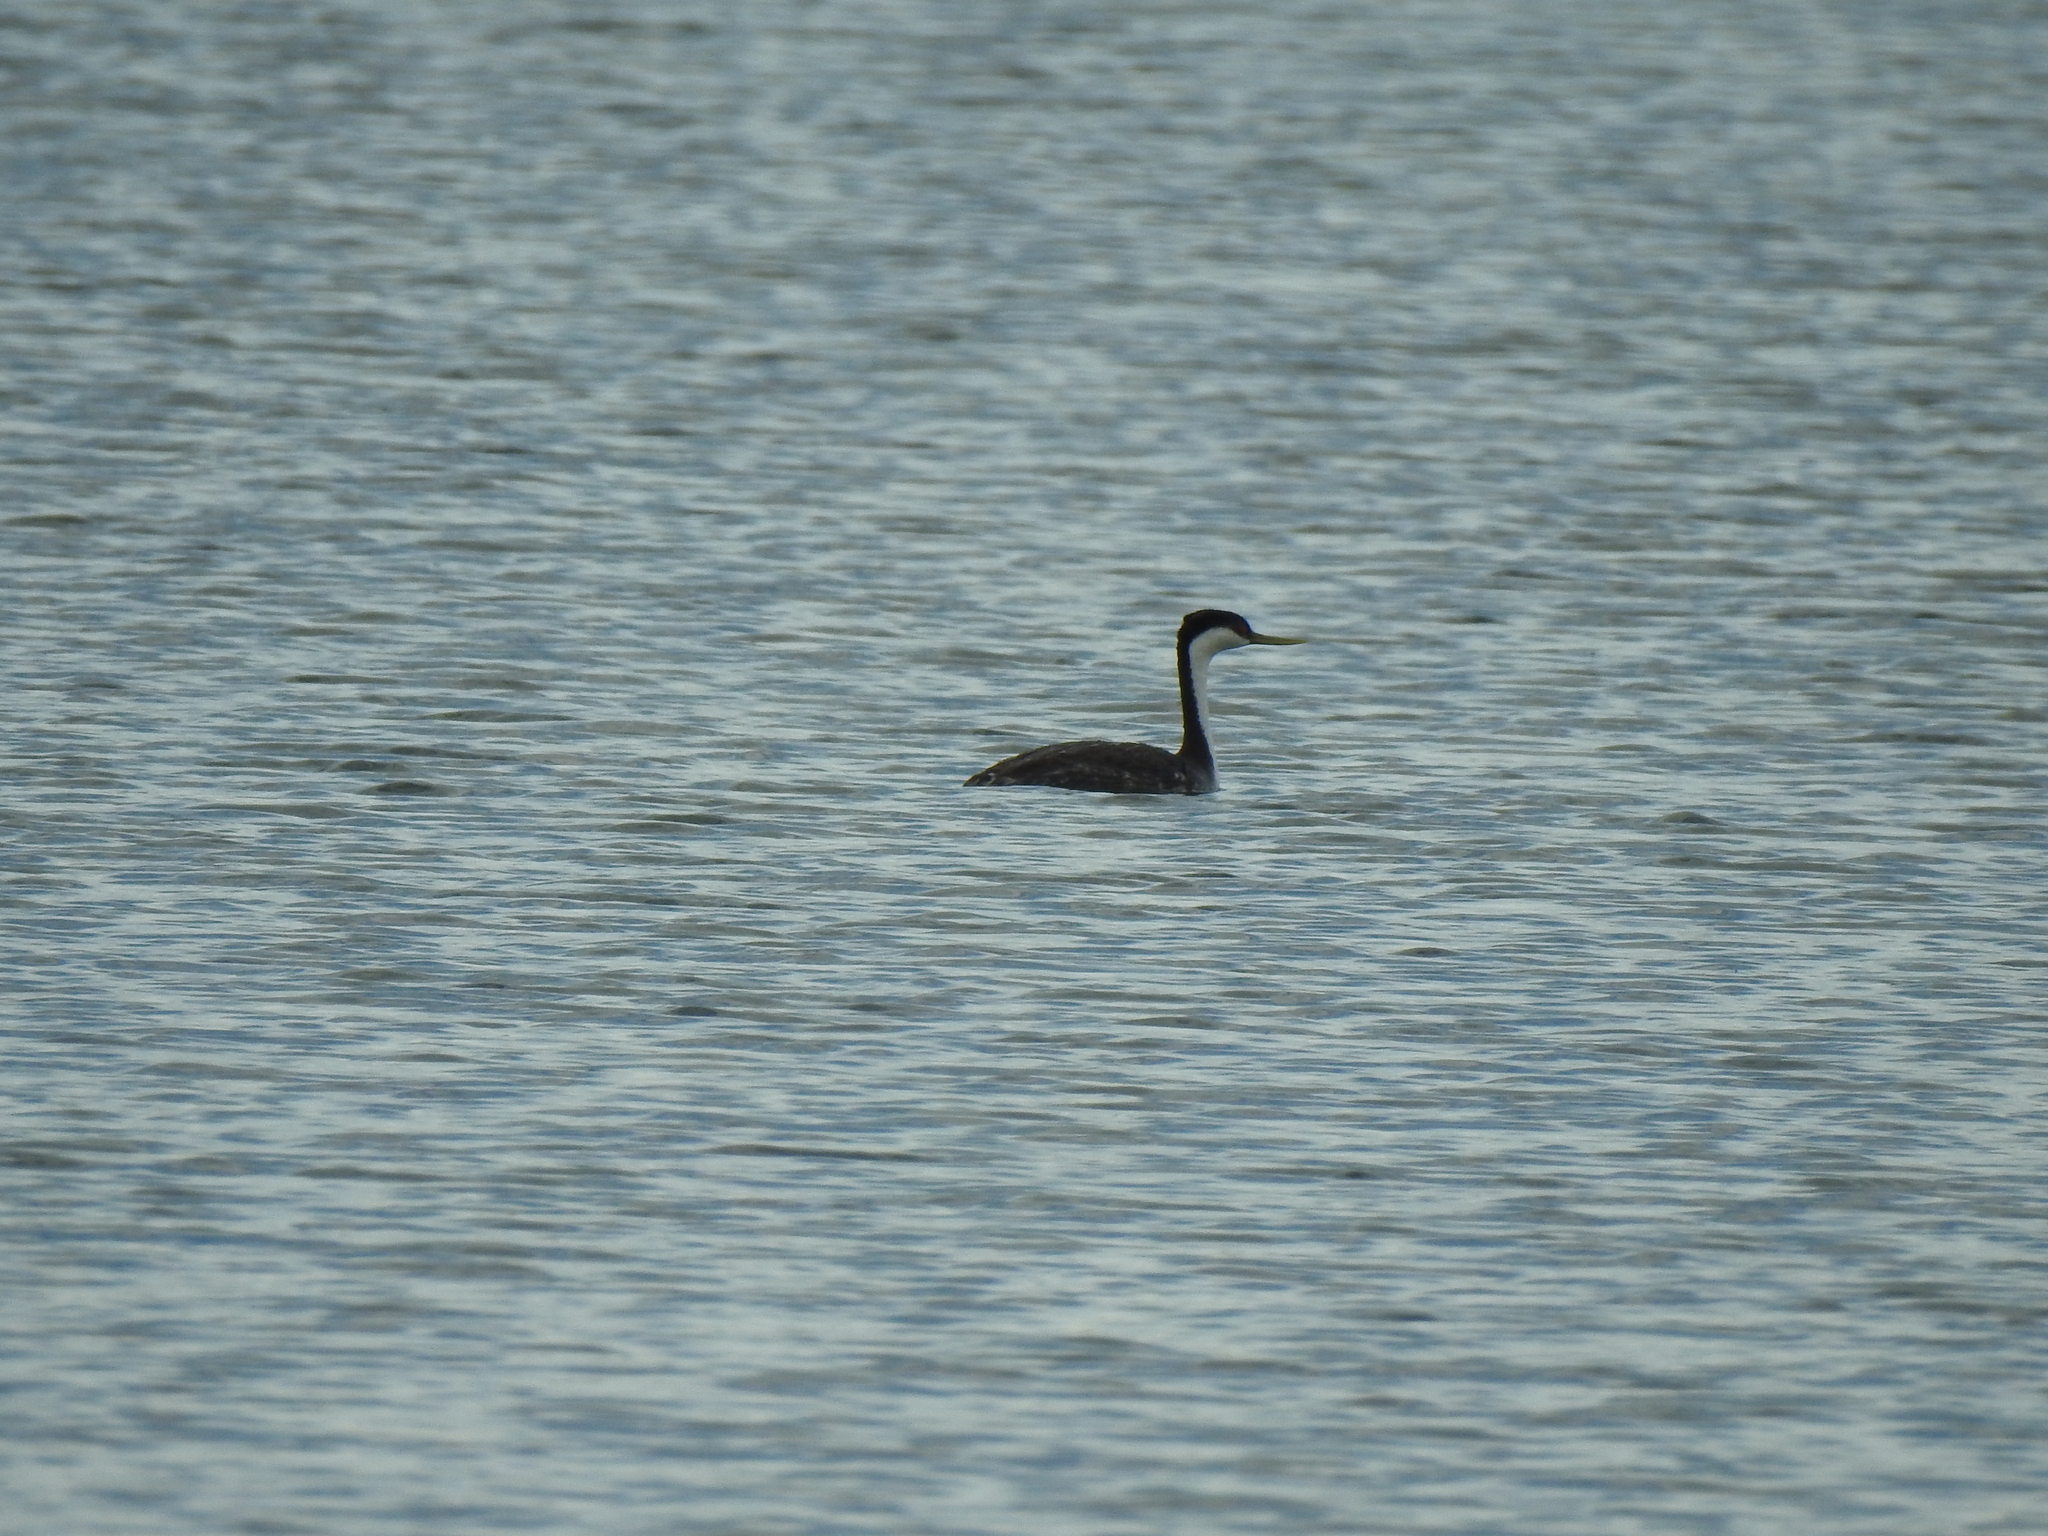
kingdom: Animalia
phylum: Chordata
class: Aves
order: Podicipediformes
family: Podicipedidae
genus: Aechmophorus
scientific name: Aechmophorus occidentalis
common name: Western grebe
